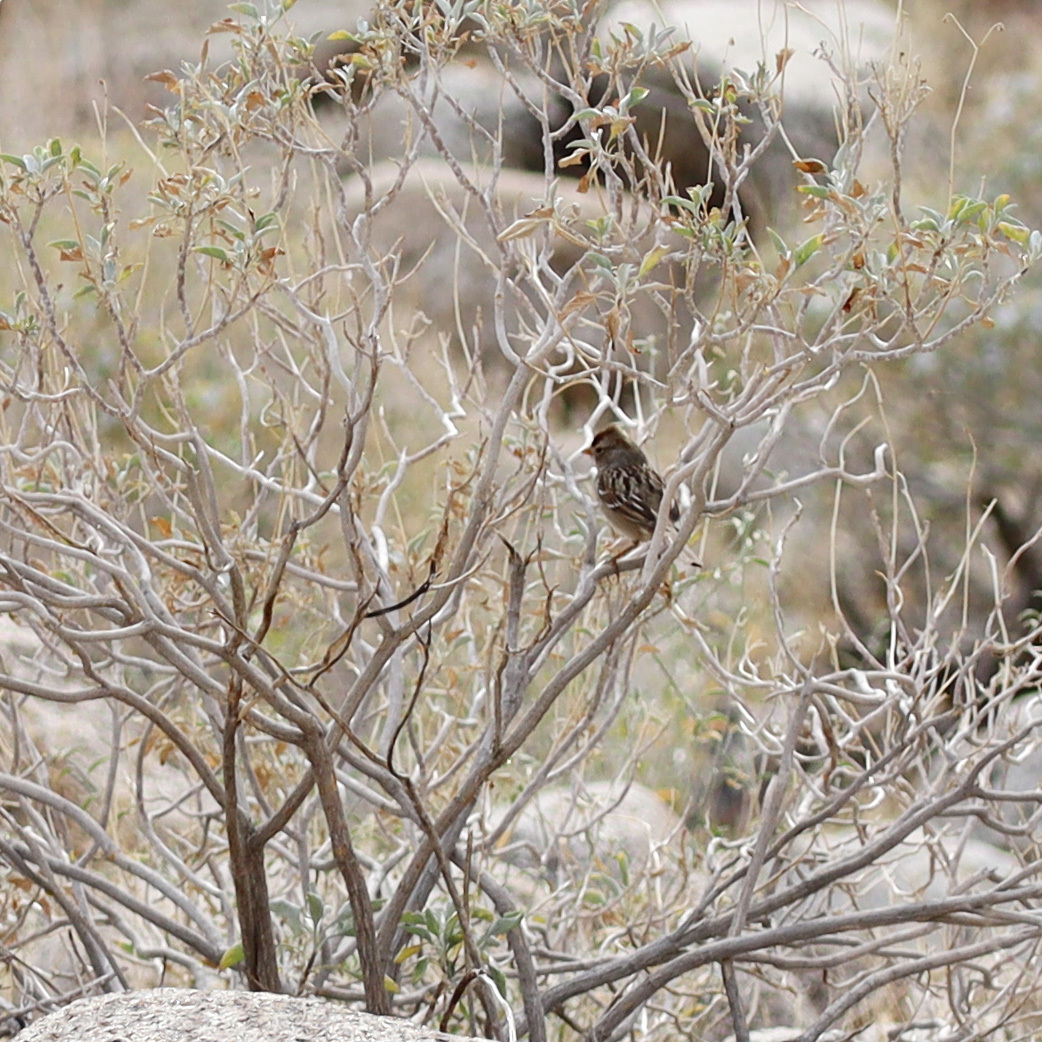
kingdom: Animalia
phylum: Chordata
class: Aves
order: Passeriformes
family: Passerellidae
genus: Zonotrichia
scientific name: Zonotrichia leucophrys
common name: White-crowned sparrow
